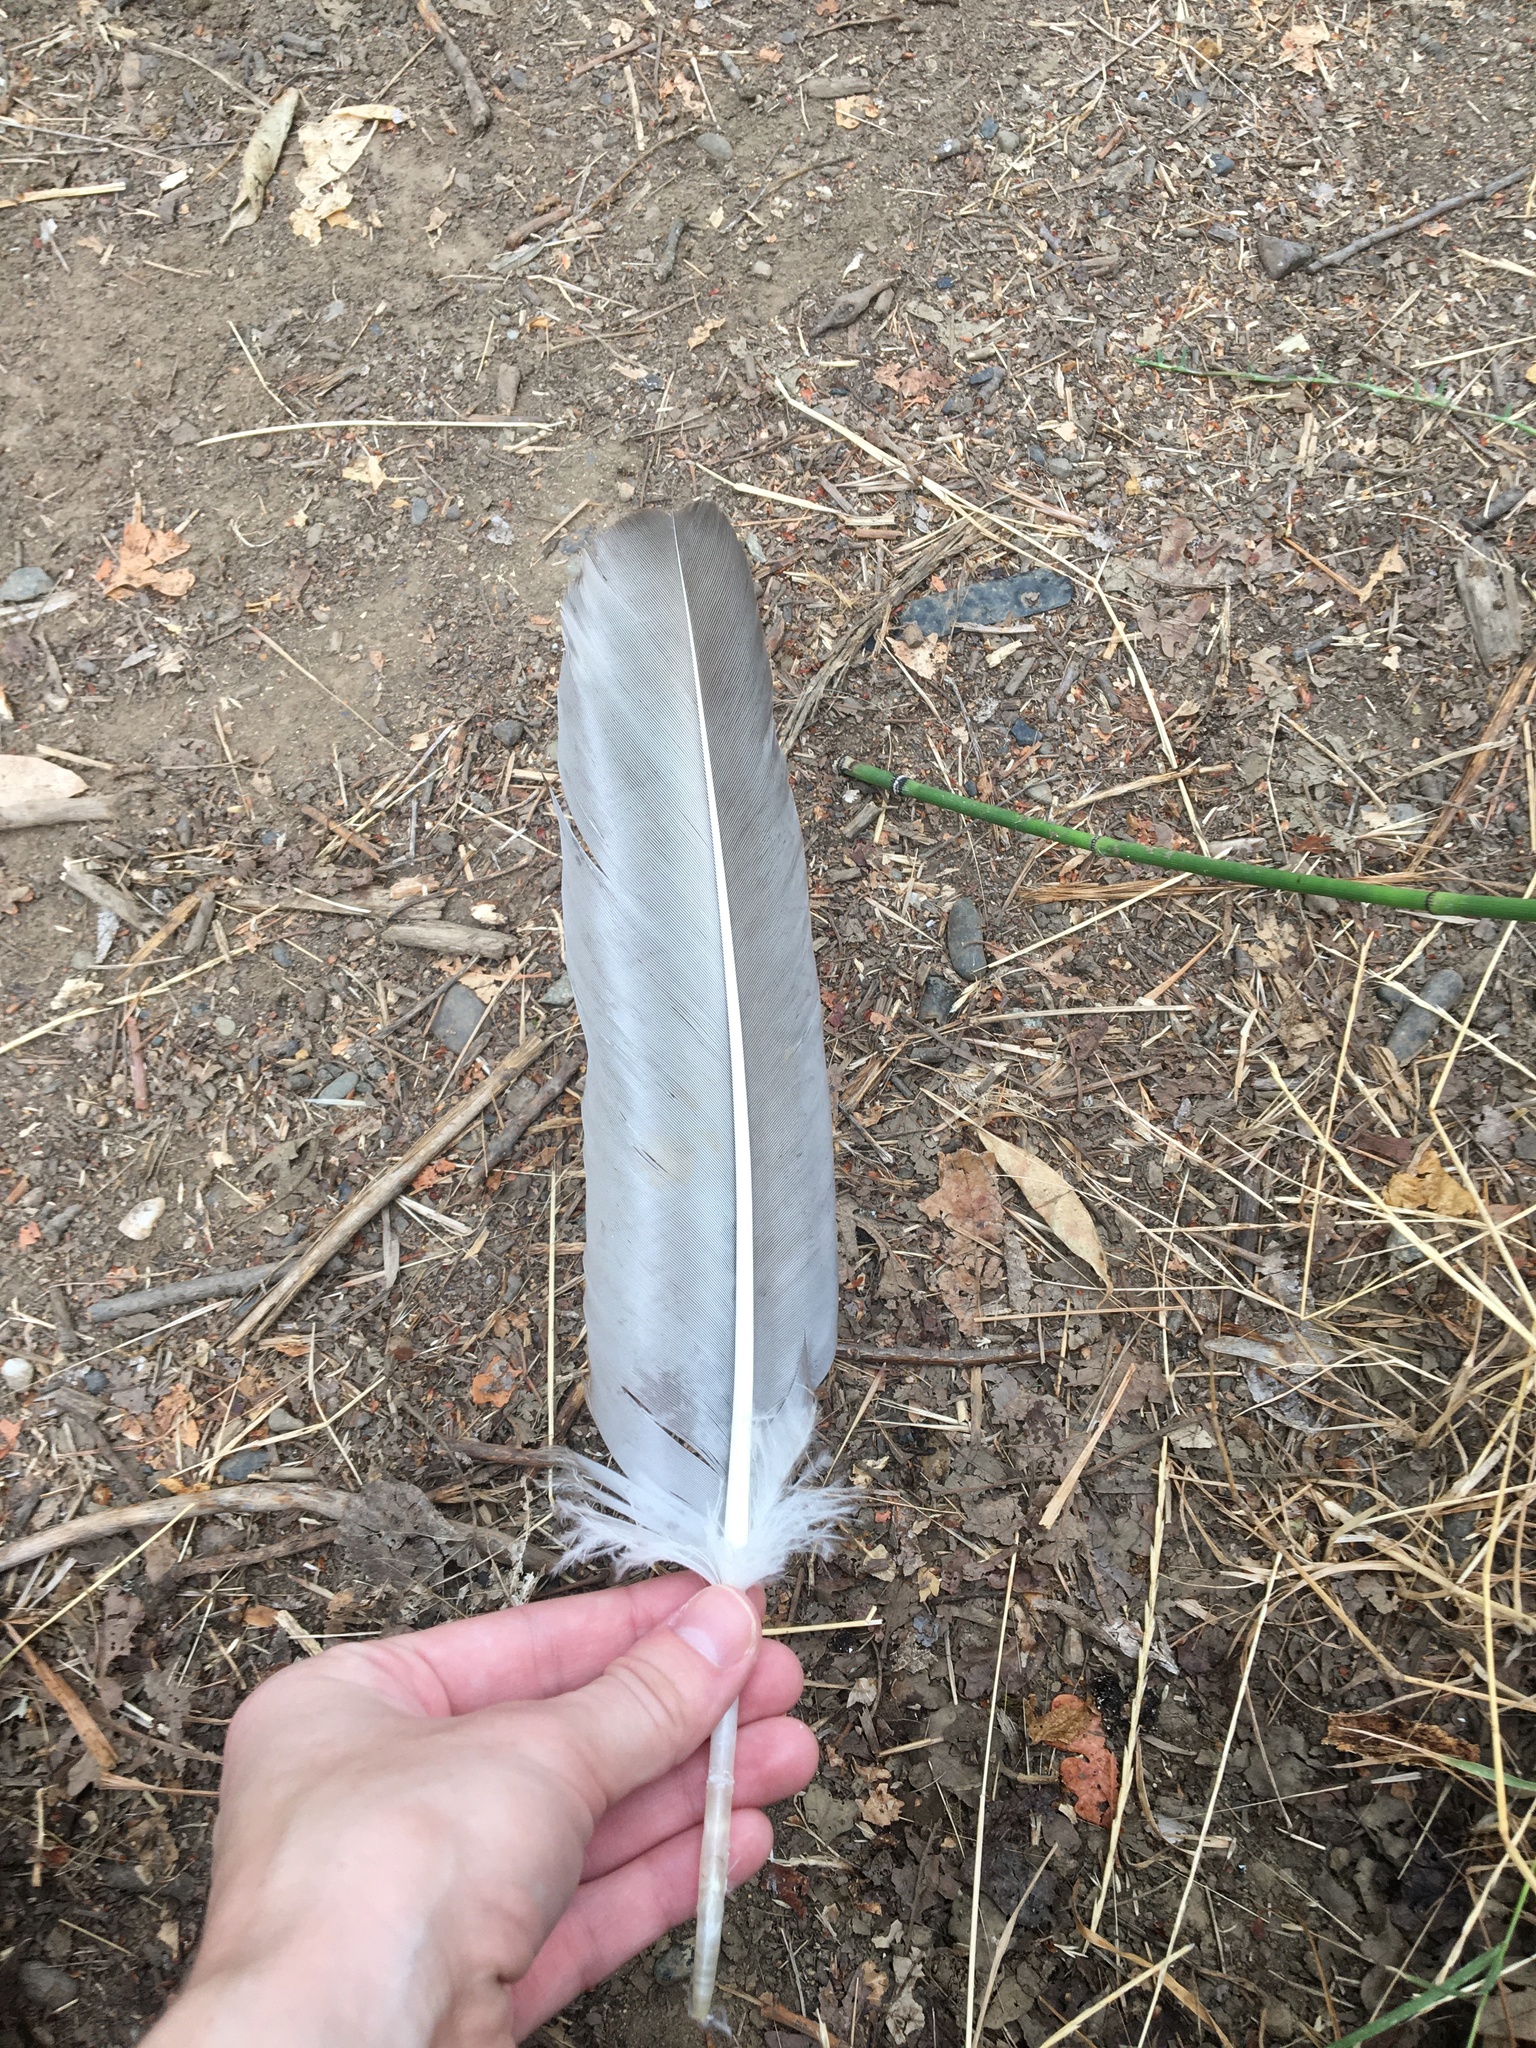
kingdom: Animalia
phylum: Chordata
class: Aves
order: Accipitriformes
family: Cathartidae
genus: Cathartes
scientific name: Cathartes aura
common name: Turkey vulture
